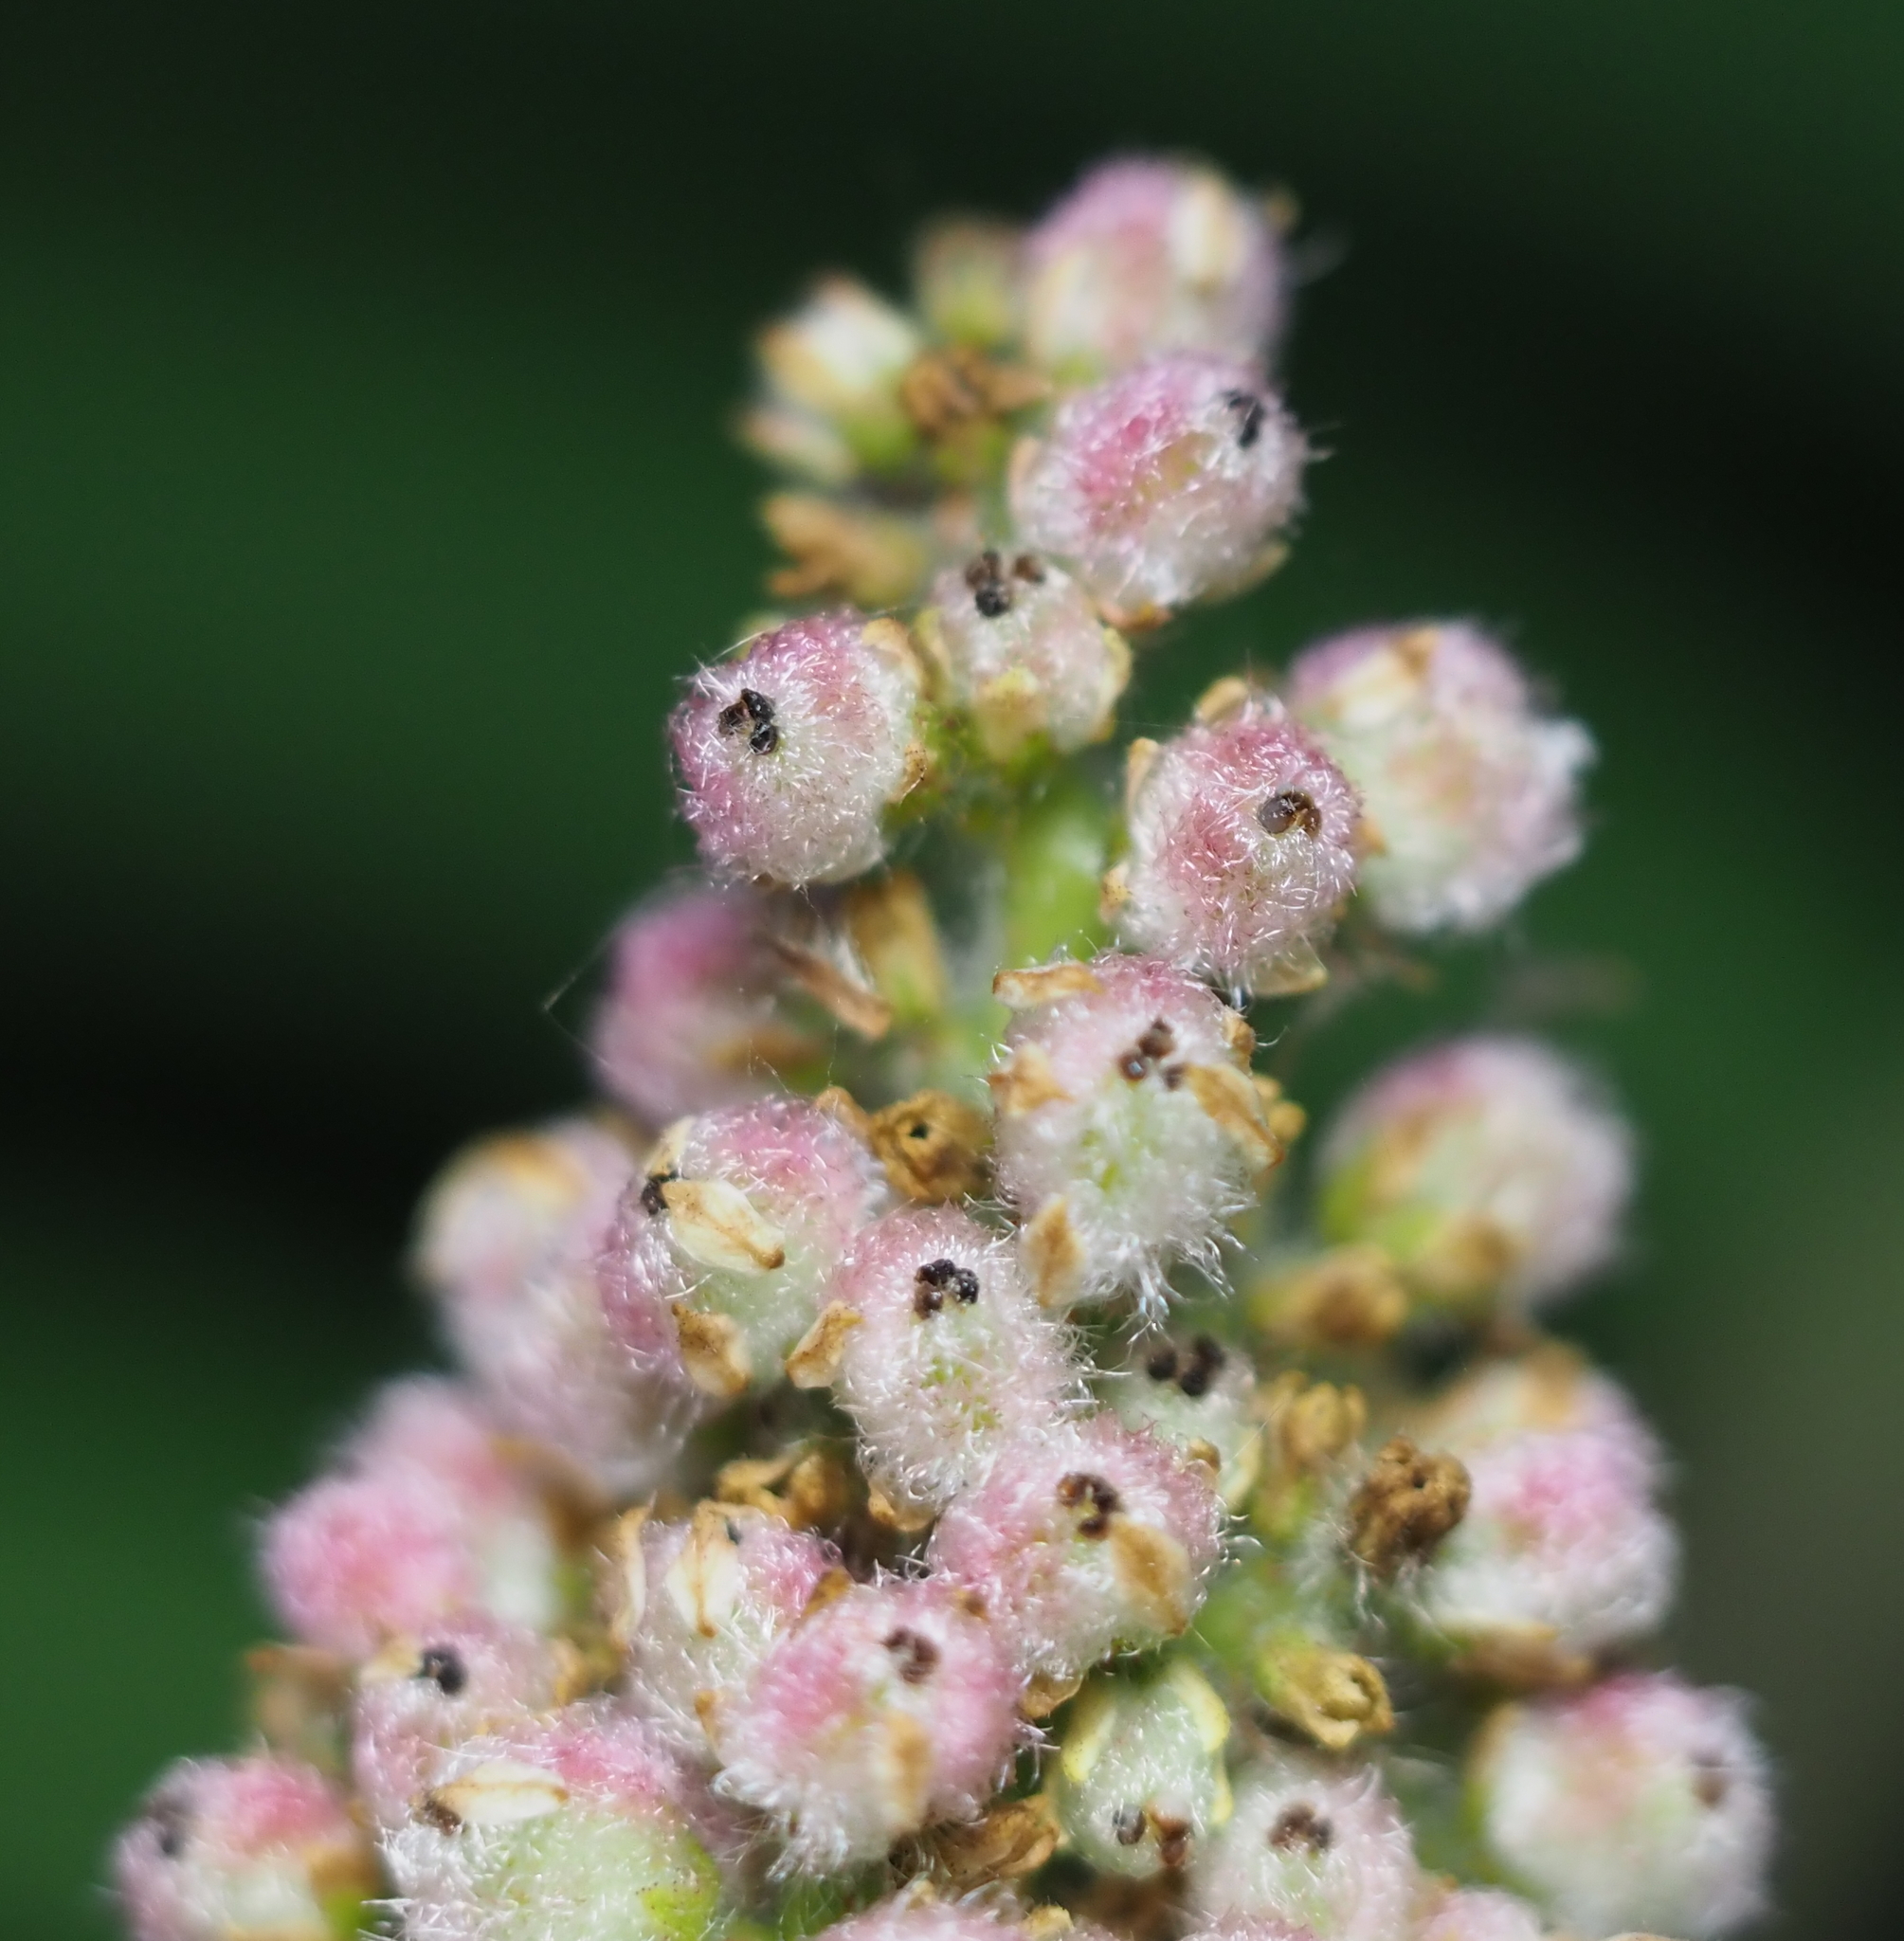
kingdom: Plantae
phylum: Tracheophyta
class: Magnoliopsida
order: Sapindales
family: Anacardiaceae
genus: Rhus
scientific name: Rhus typhina
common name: Staghorn sumac
